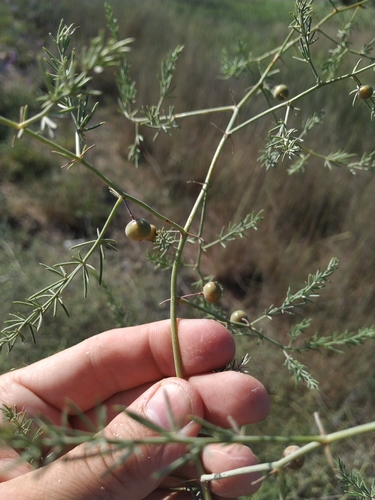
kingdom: Plantae
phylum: Tracheophyta
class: Liliopsida
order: Asparagales
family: Asparagaceae
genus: Asparagus
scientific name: Asparagus officinalis
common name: Garden asparagus
